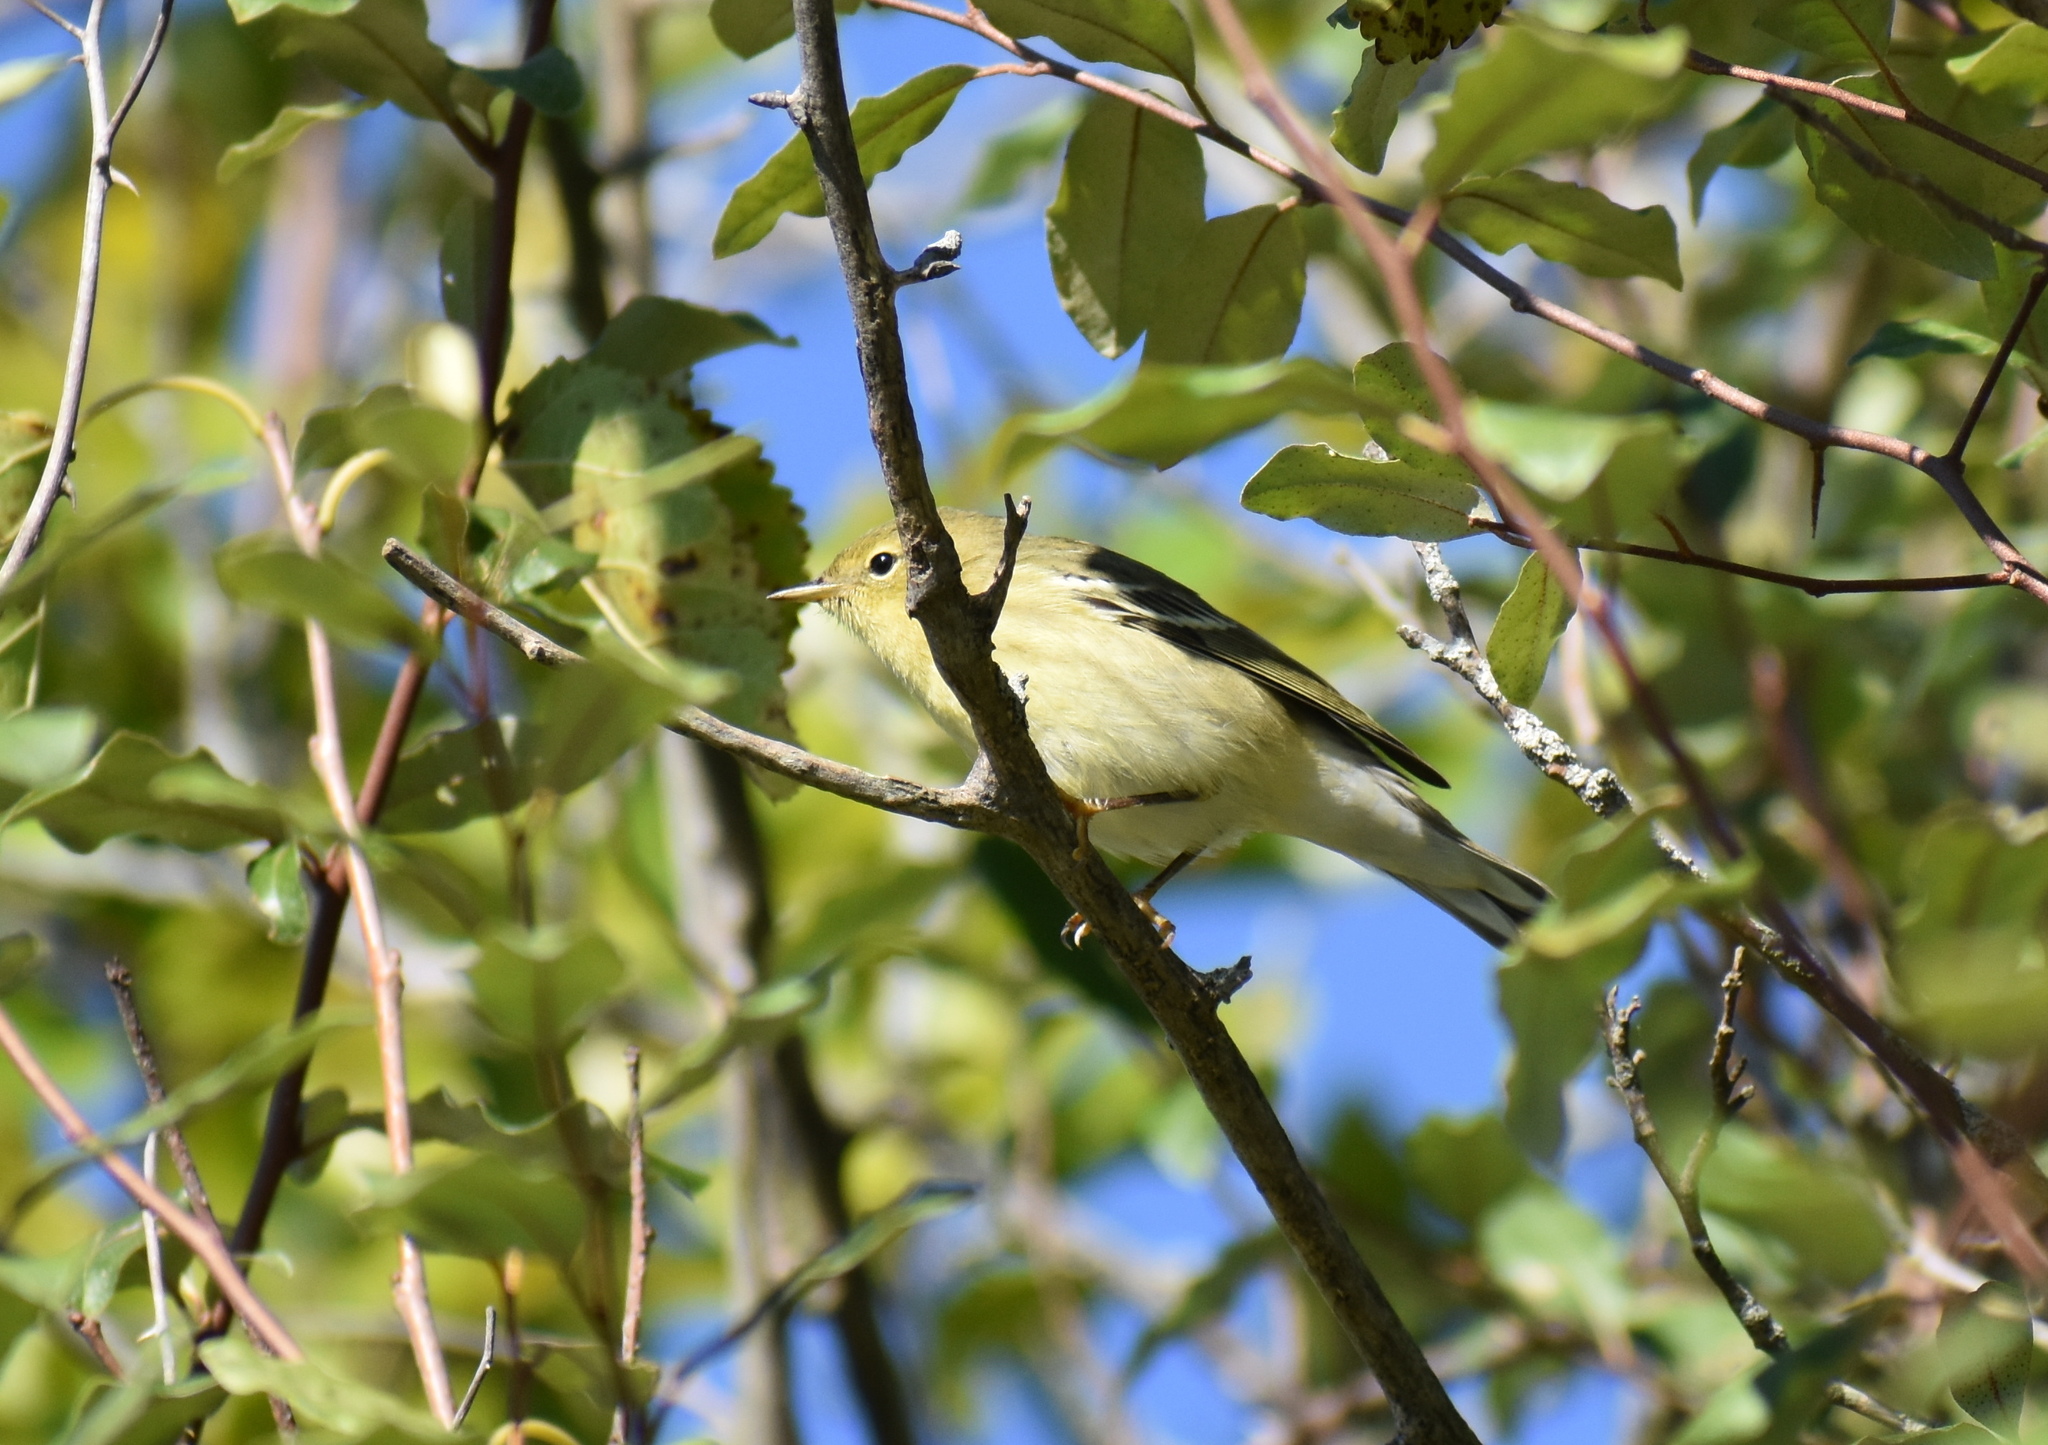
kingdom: Animalia
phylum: Chordata
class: Aves
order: Passeriformes
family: Parulidae
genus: Setophaga
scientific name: Setophaga striata
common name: Blackpoll warbler
